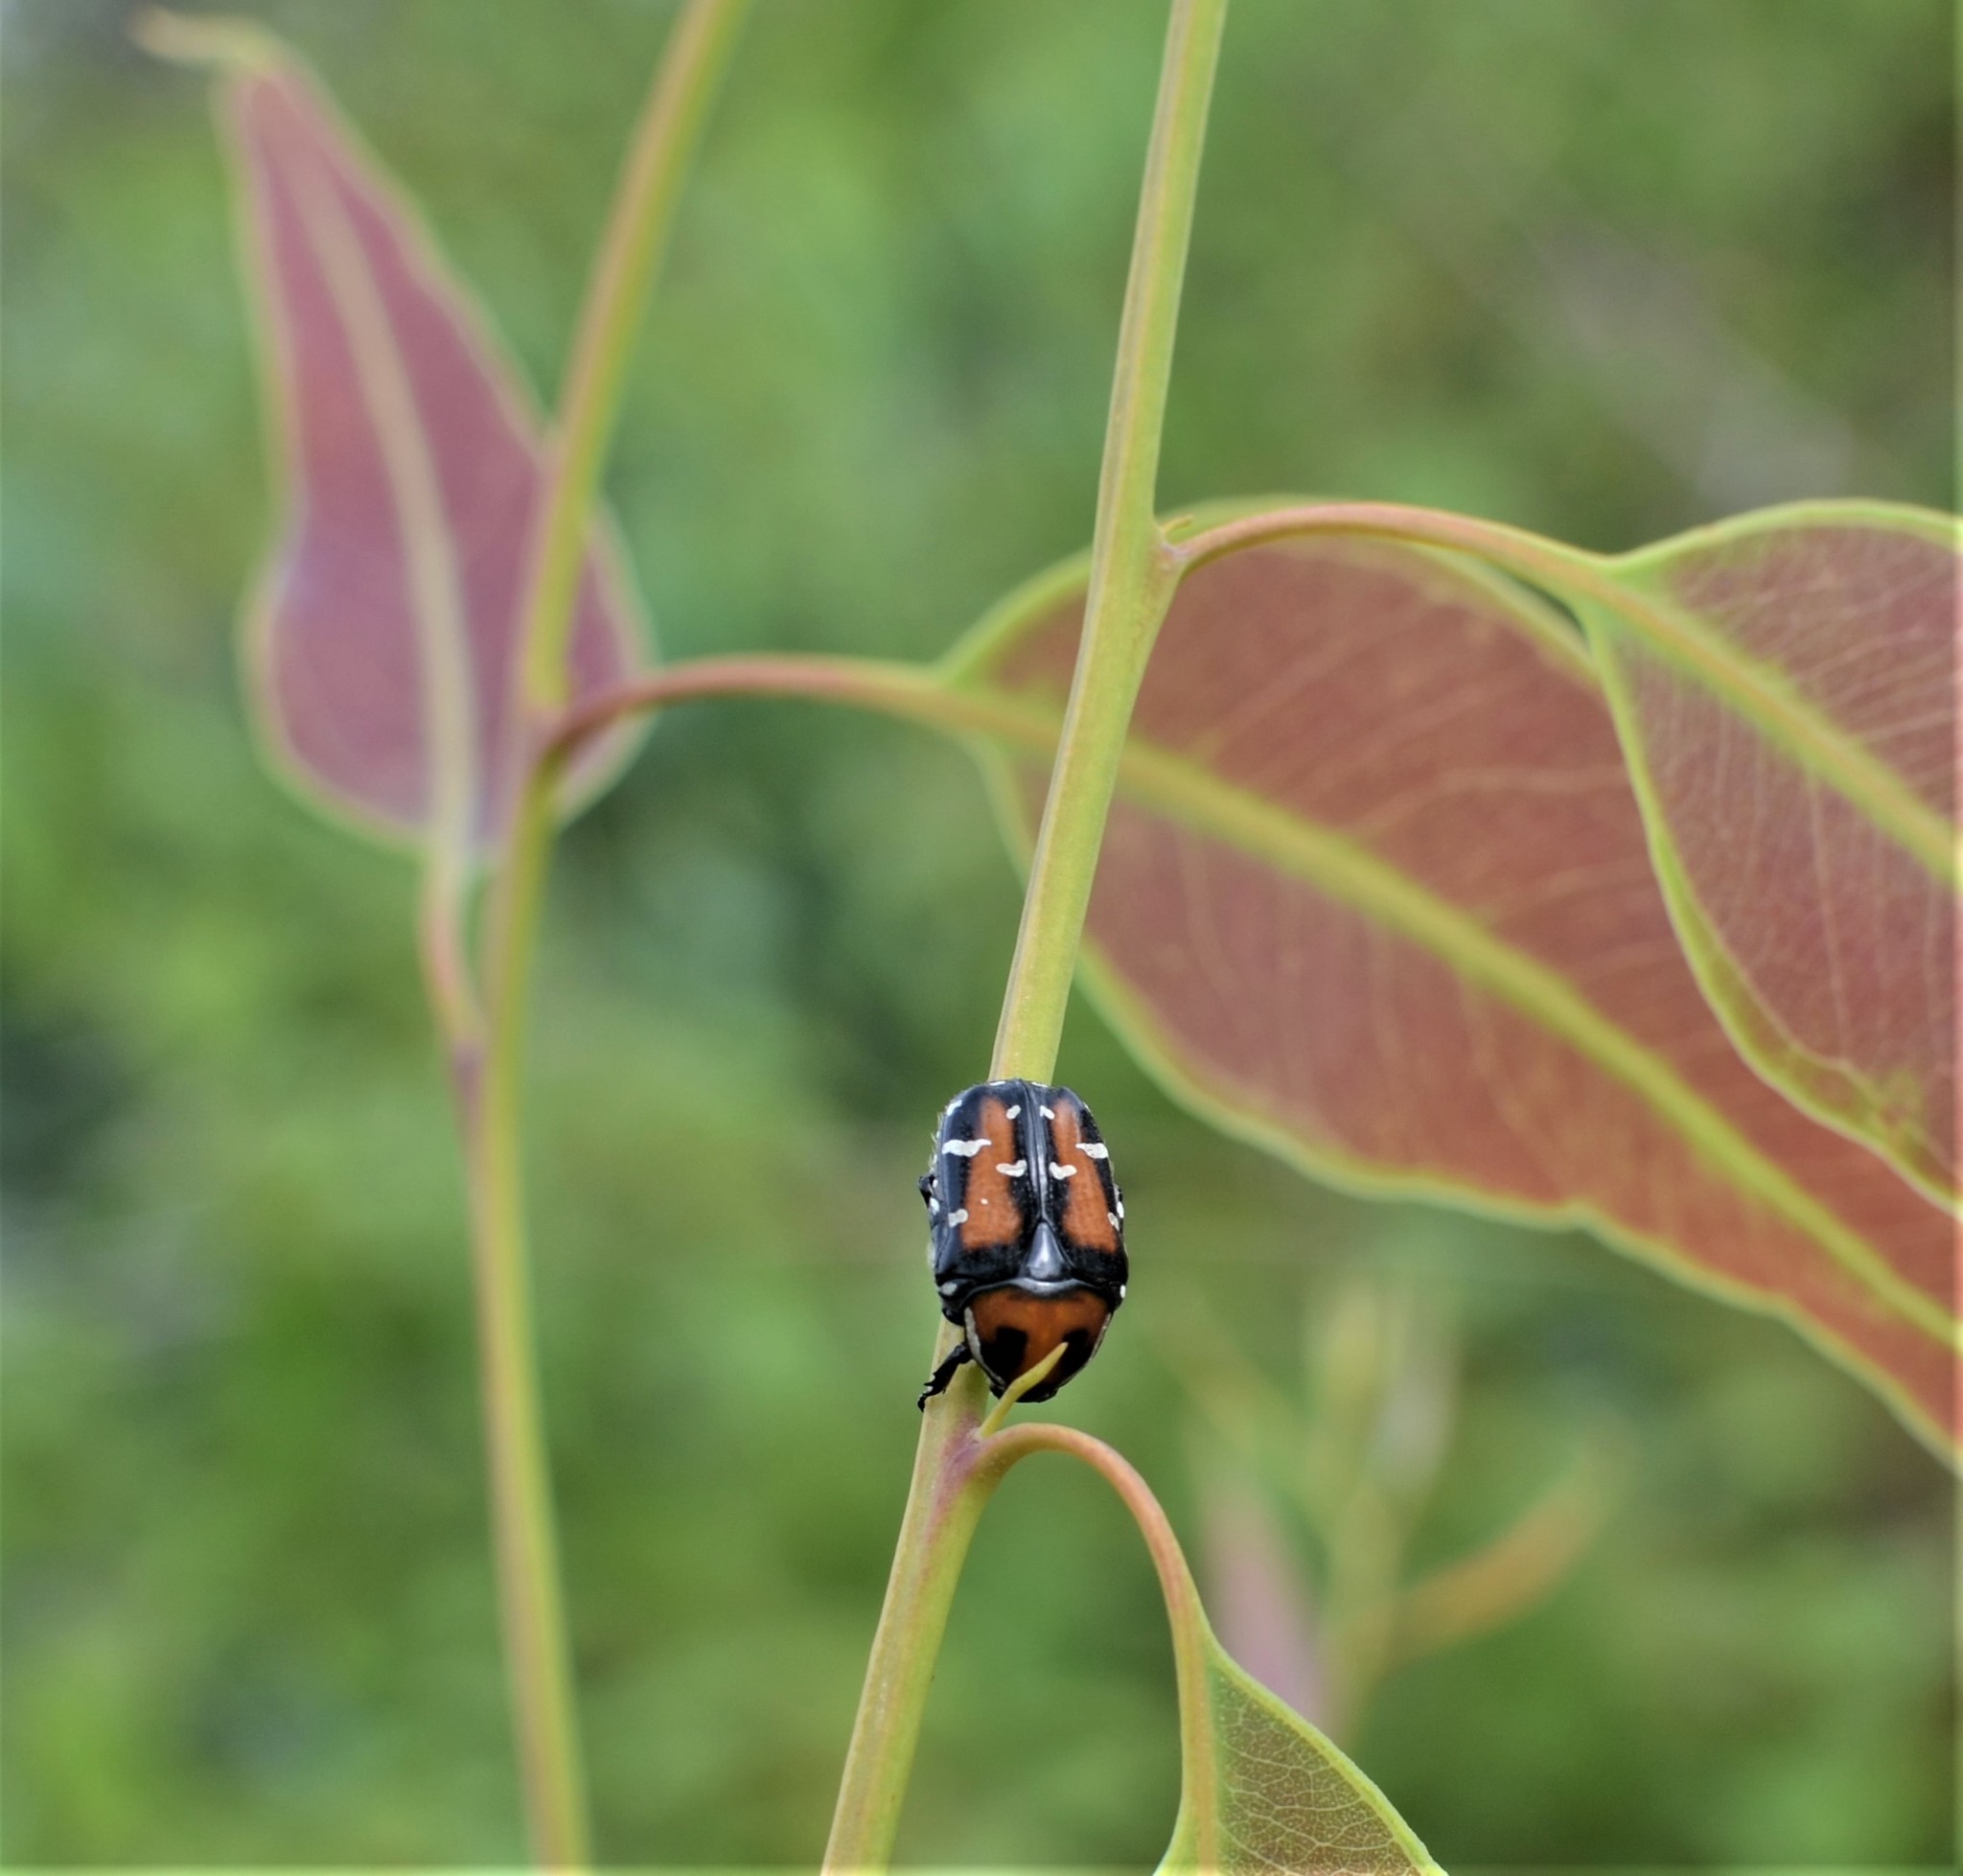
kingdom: Animalia
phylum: Arthropoda
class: Insecta
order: Coleoptera
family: Scarabaeidae
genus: Gametis
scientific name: Gametis versicolor
